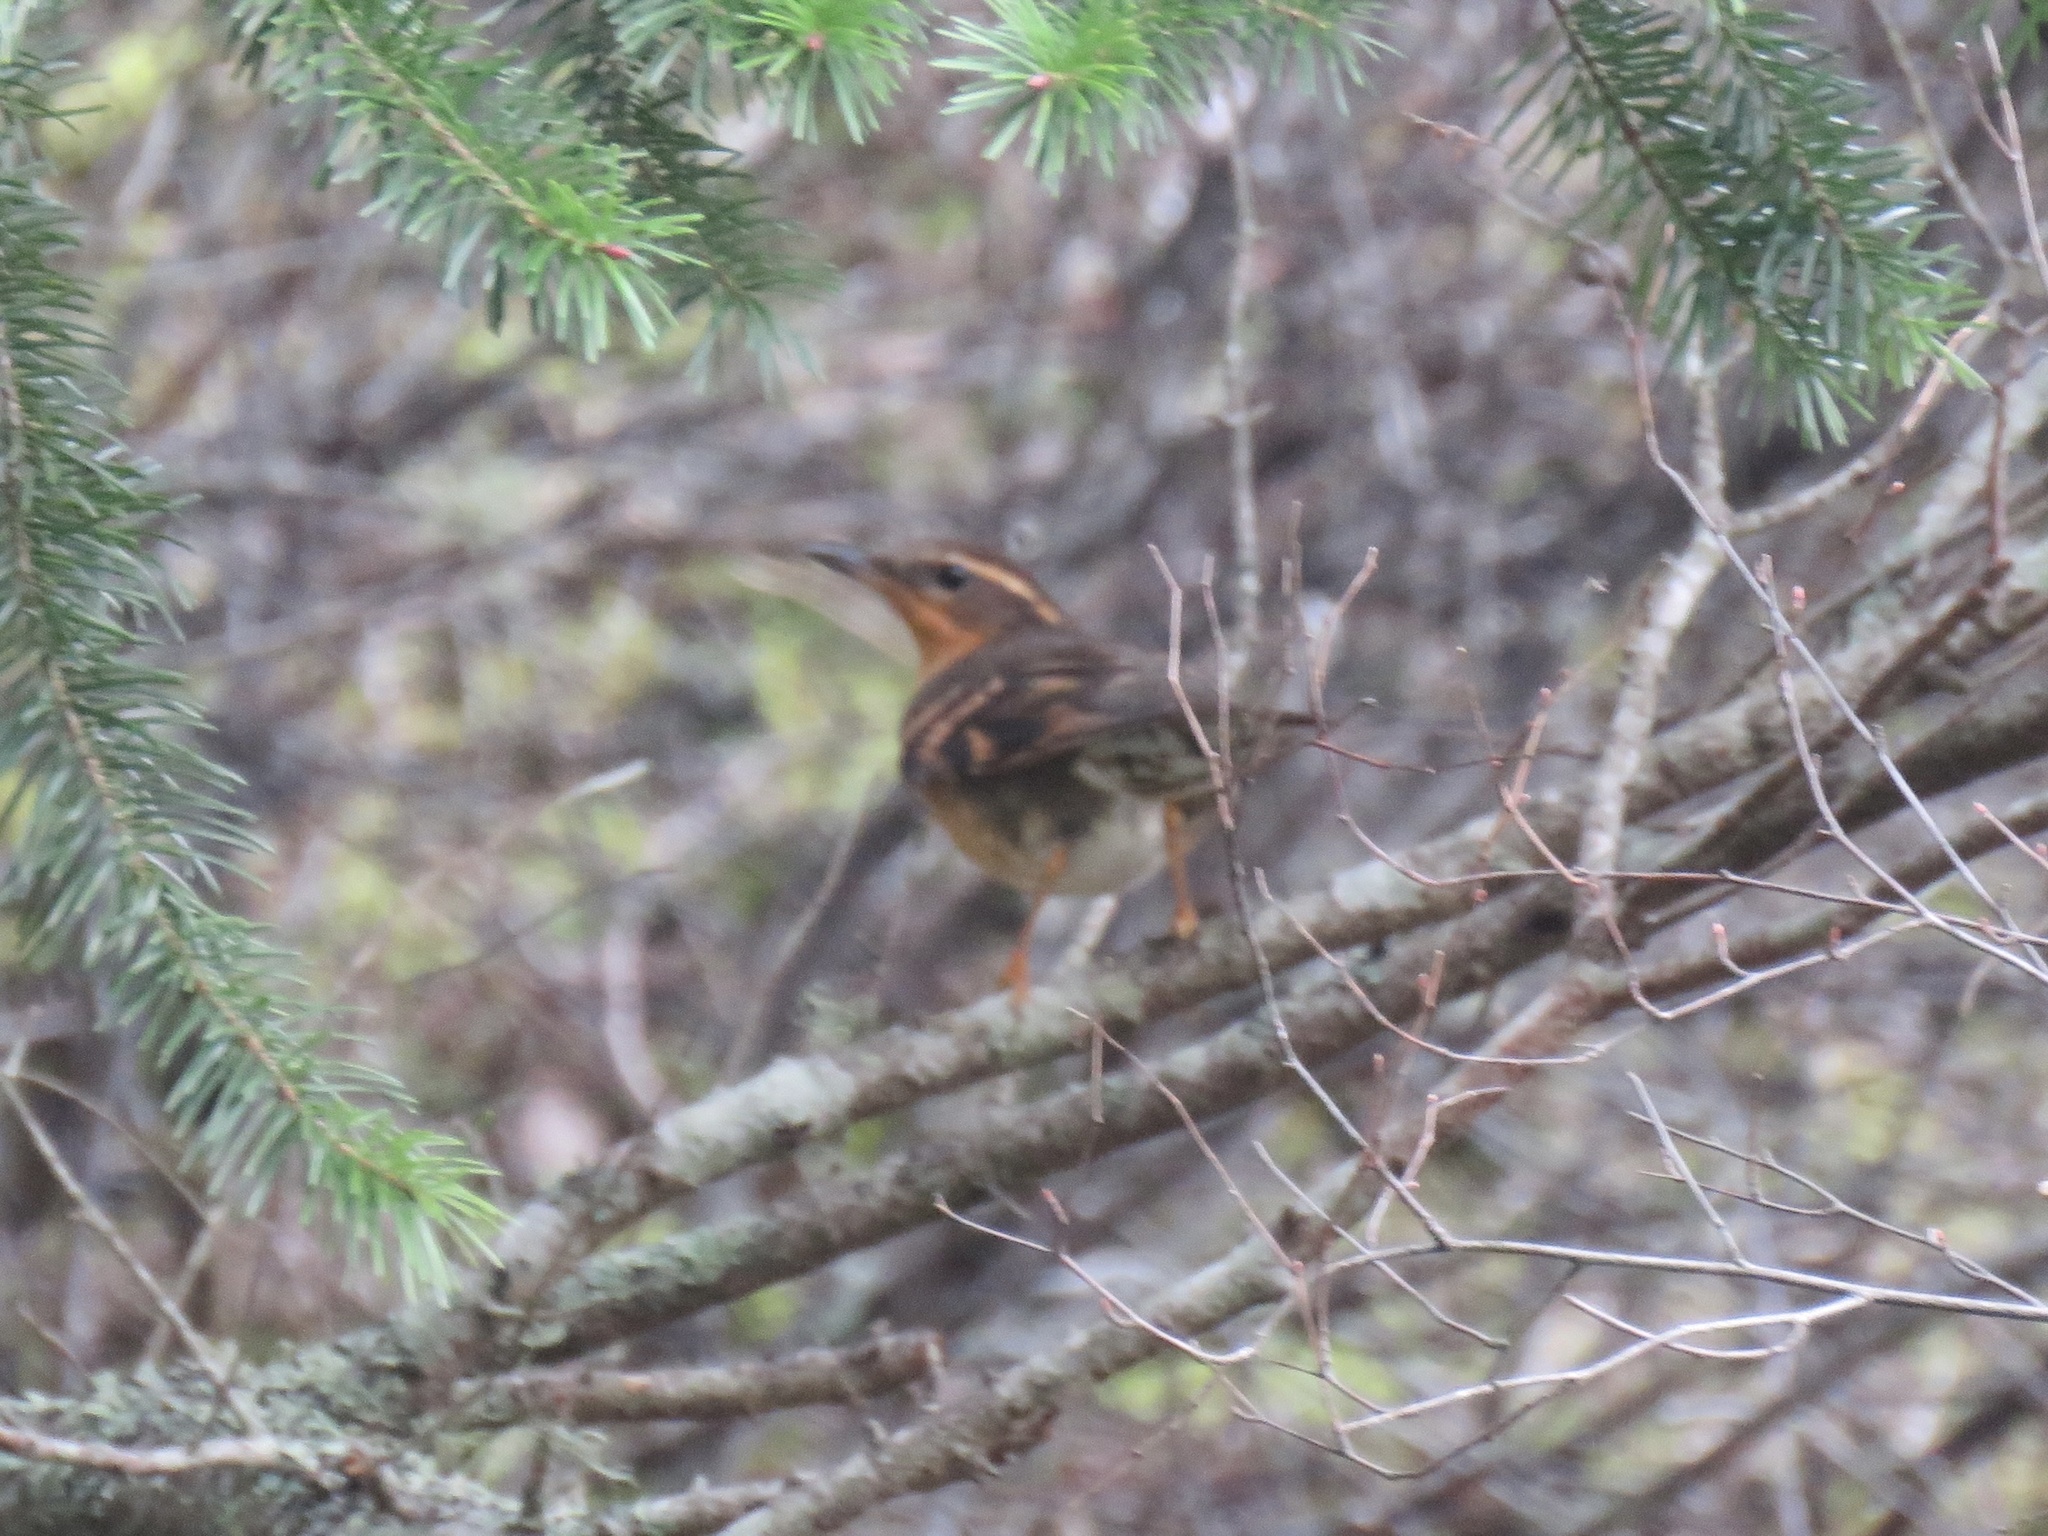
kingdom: Animalia
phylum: Chordata
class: Aves
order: Passeriformes
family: Turdidae
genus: Ixoreus
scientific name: Ixoreus naevius
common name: Varied thrush
